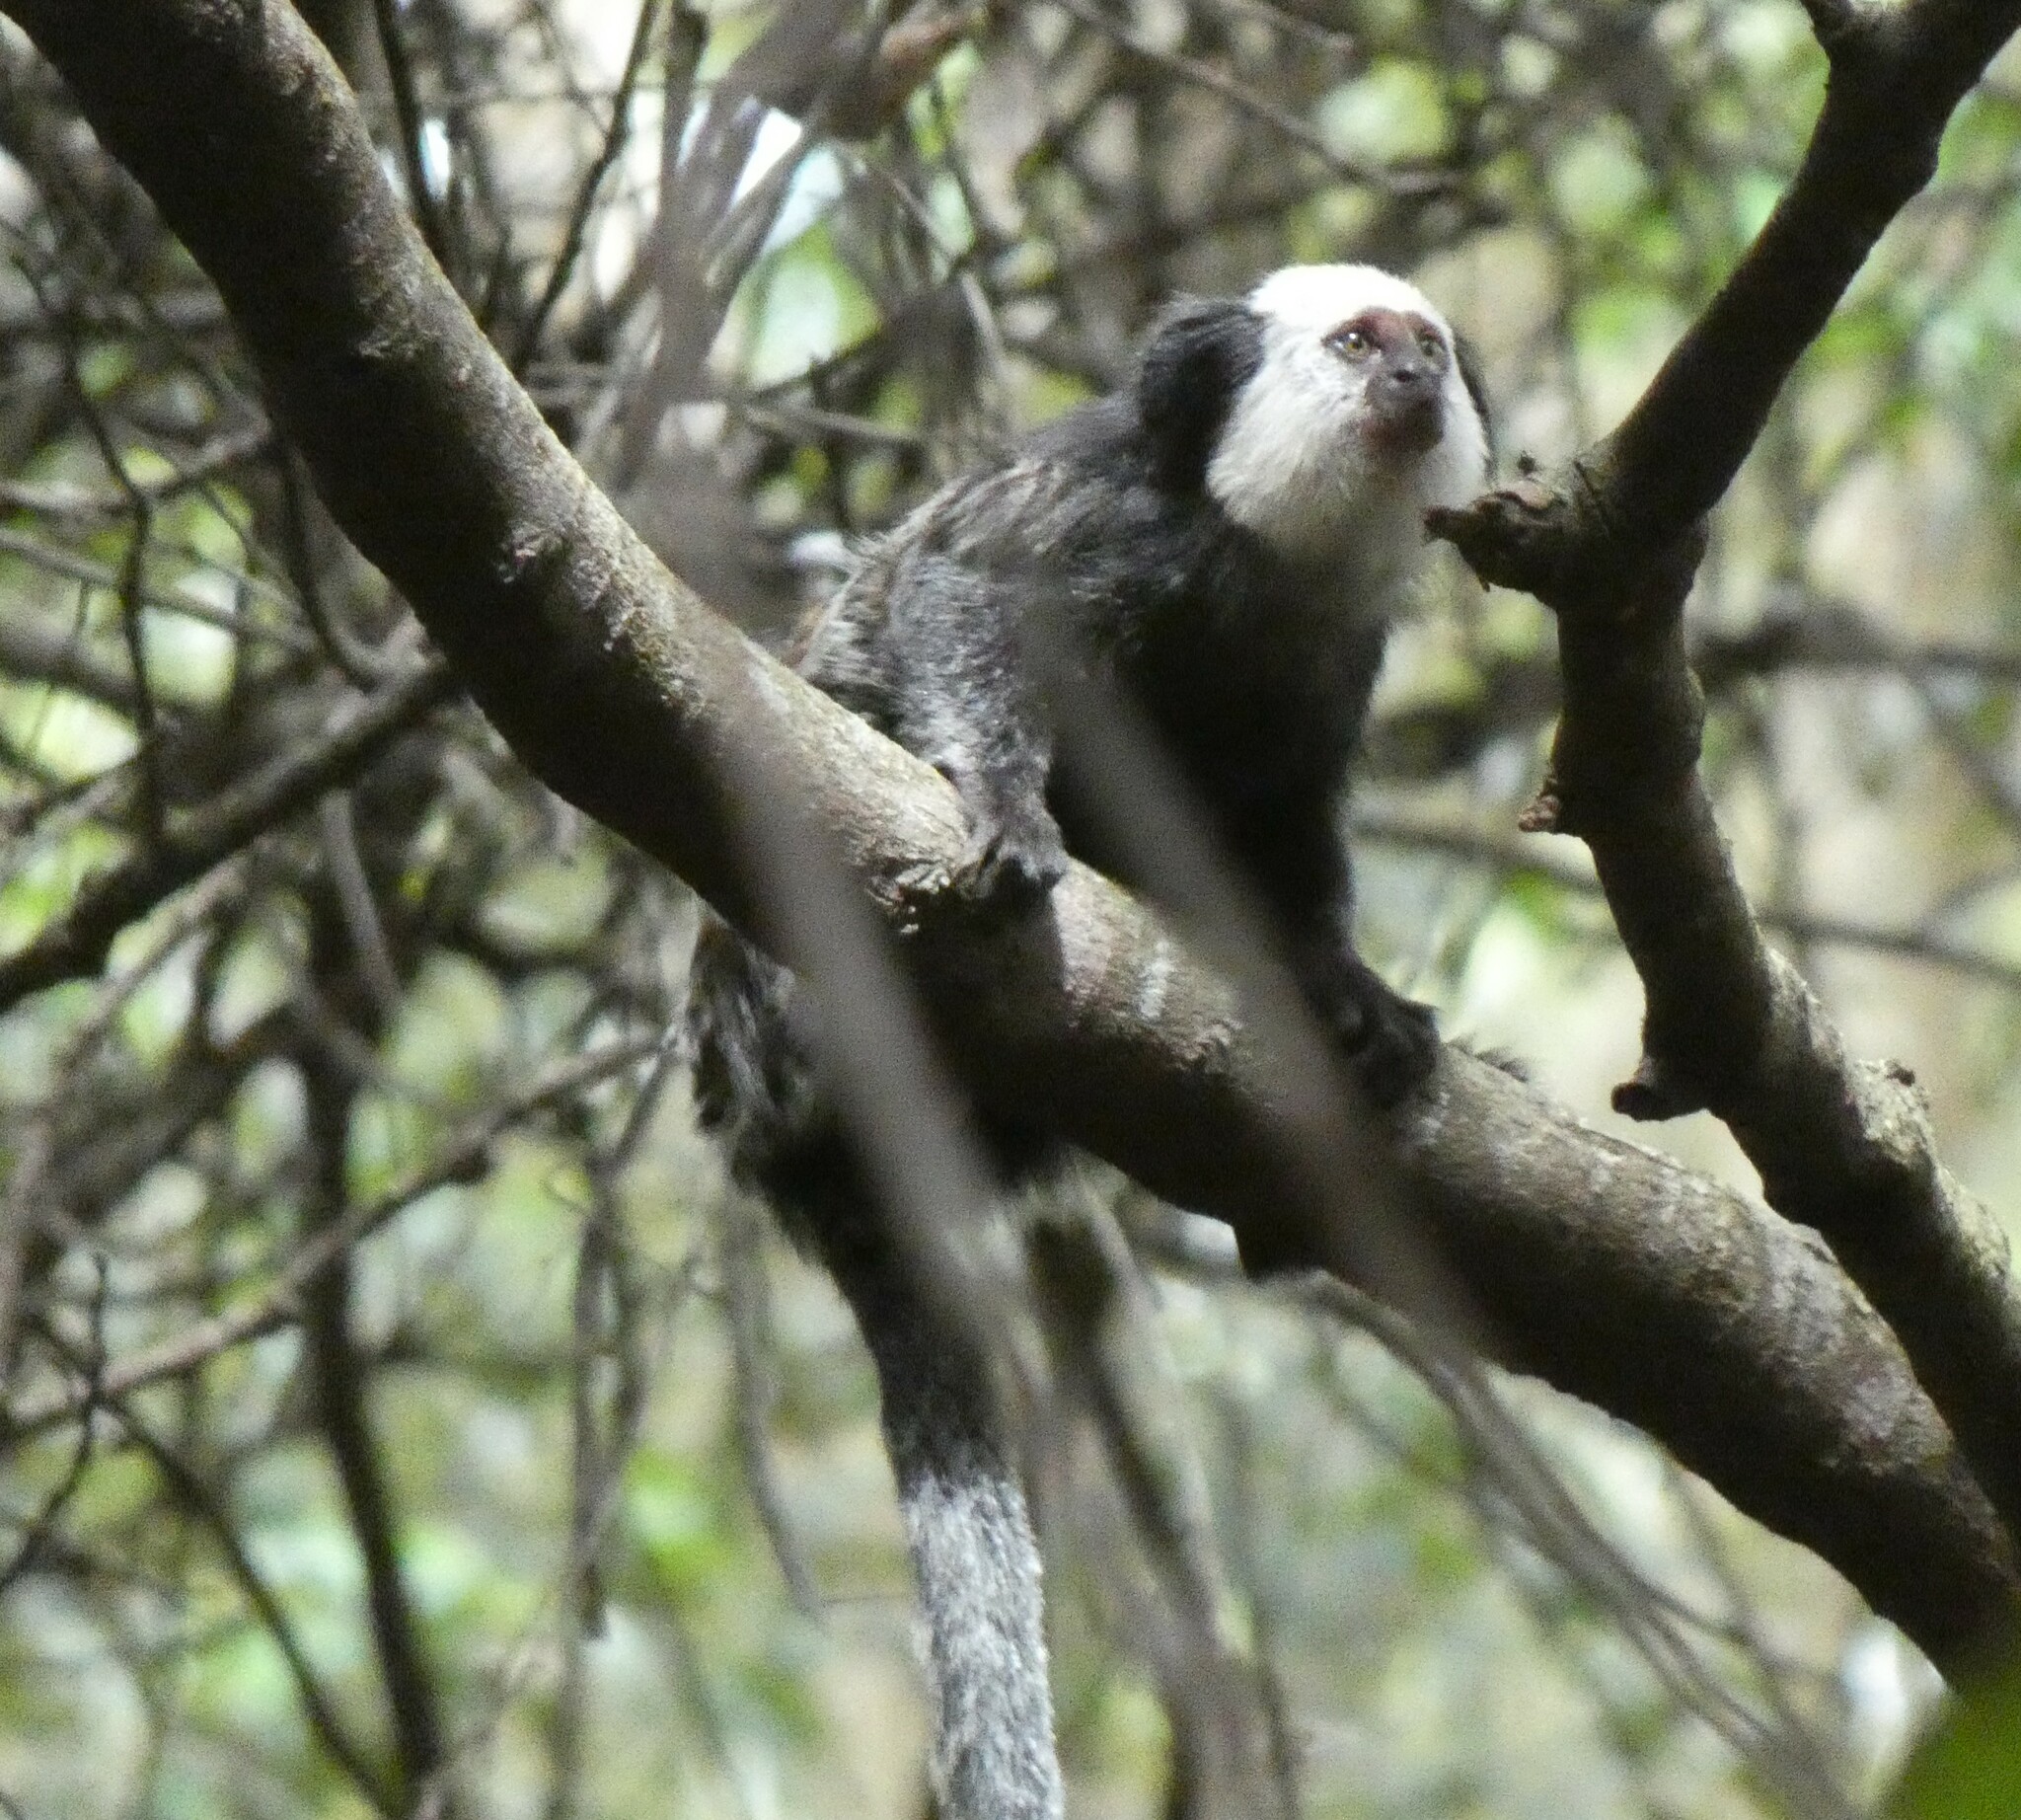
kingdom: Animalia
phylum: Chordata
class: Mammalia
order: Primates
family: Callitrichidae
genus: Callithrix
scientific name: Callithrix geoffroyi
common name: White-headed marmoset
